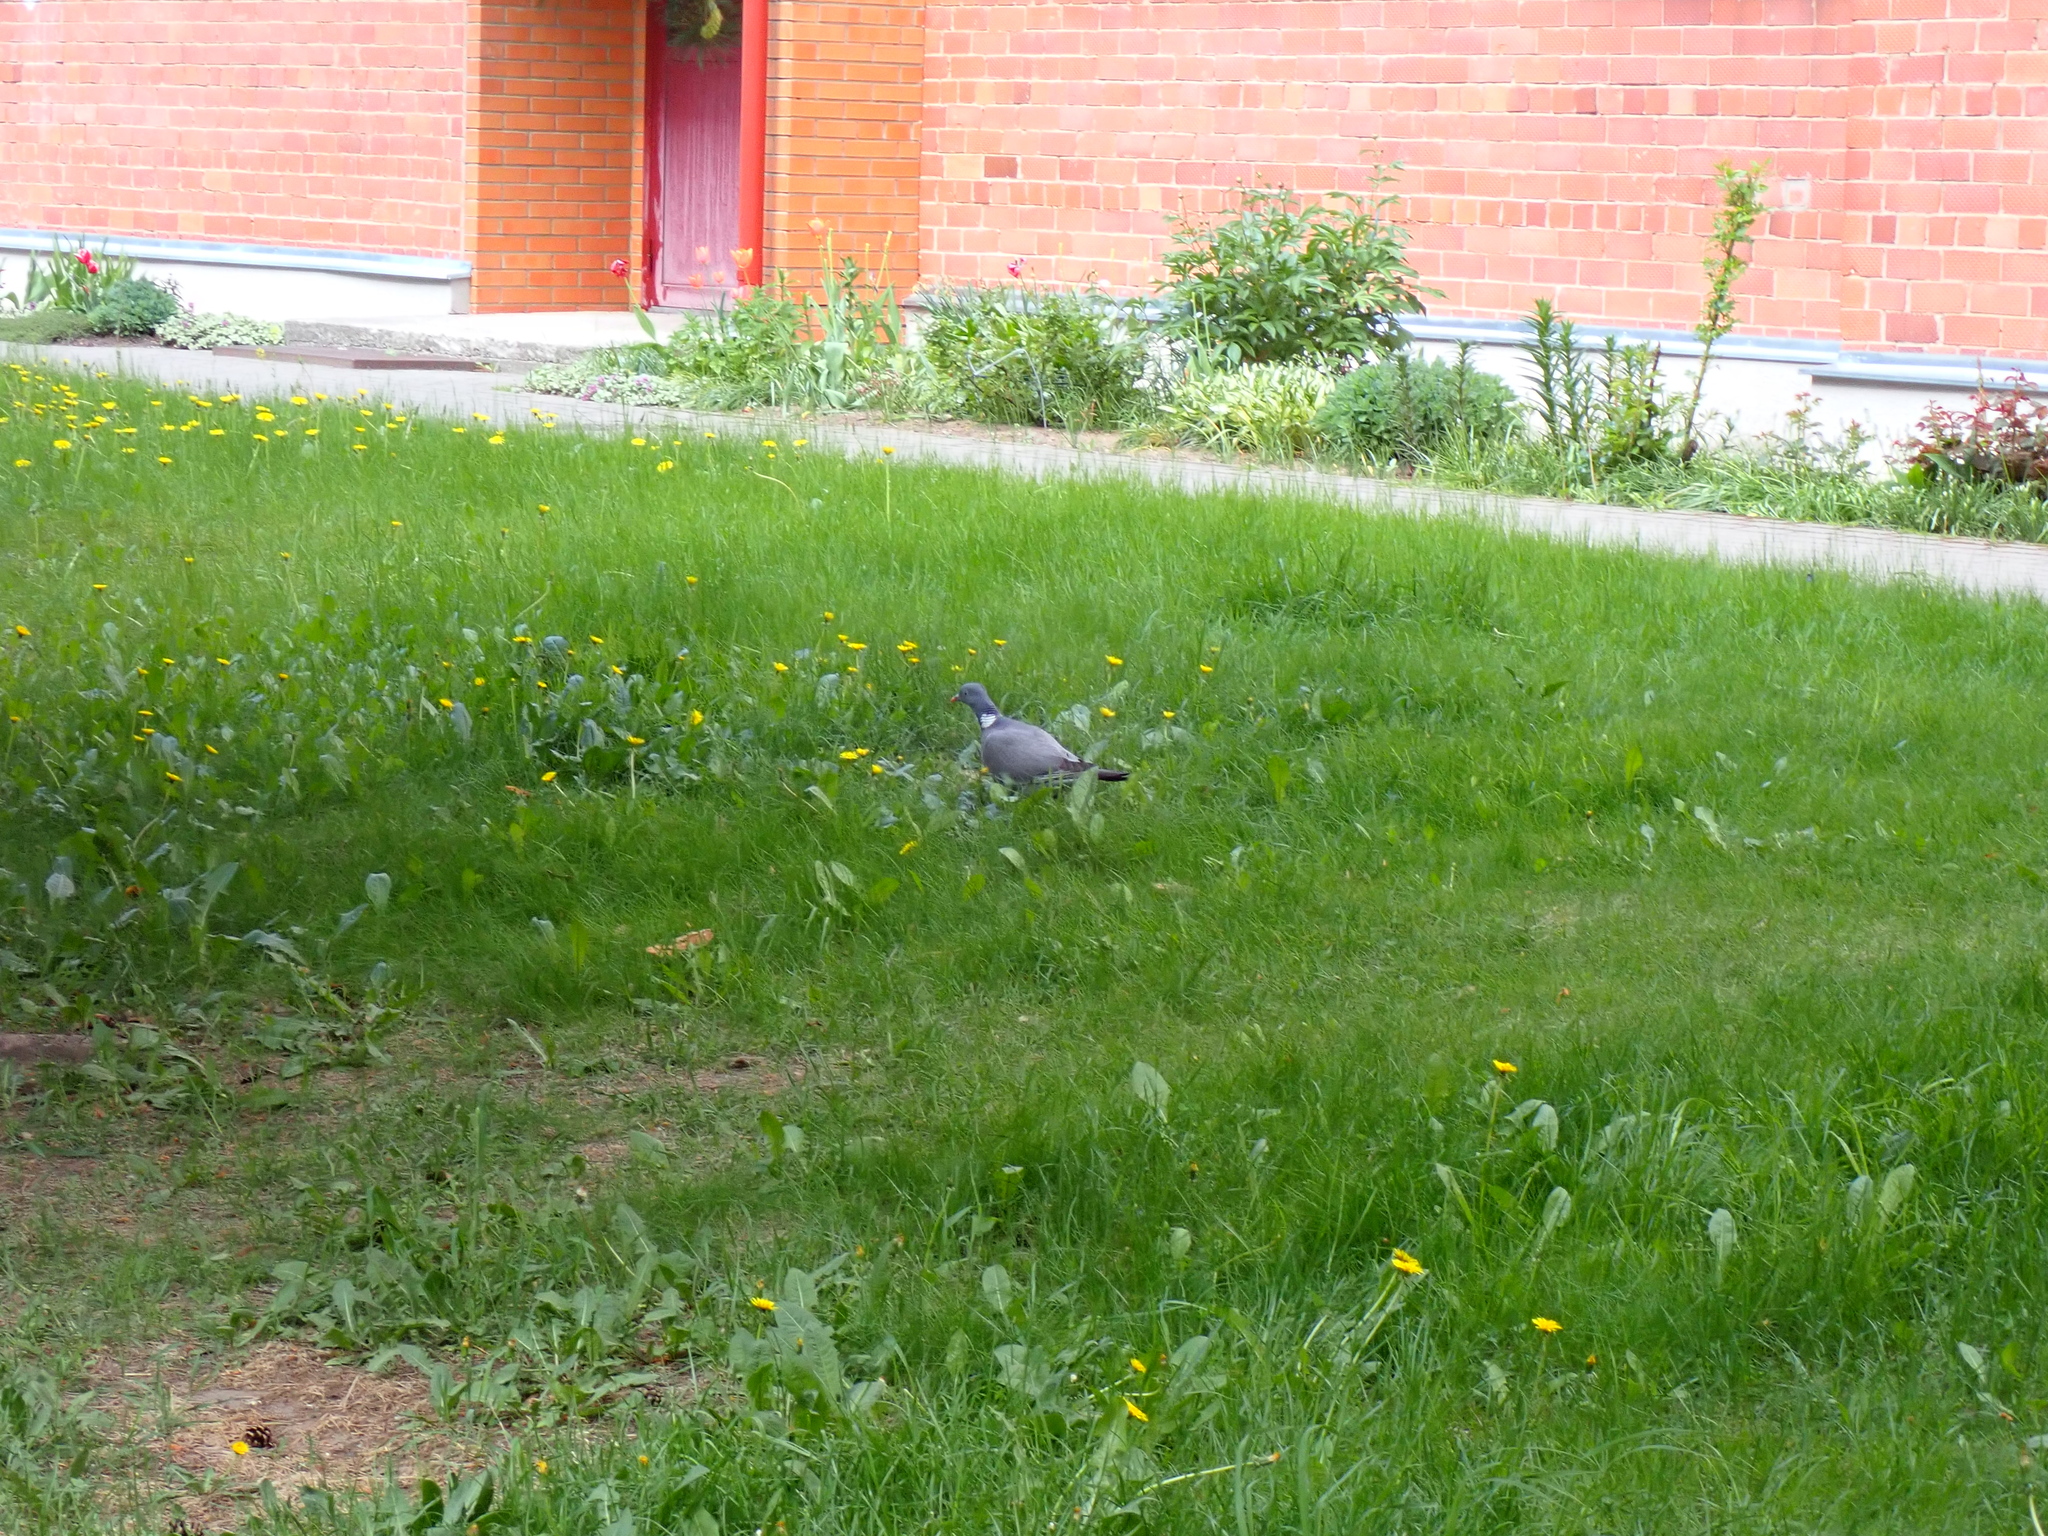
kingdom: Animalia
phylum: Chordata
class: Aves
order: Columbiformes
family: Columbidae
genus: Columba
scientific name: Columba palumbus
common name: Common wood pigeon
